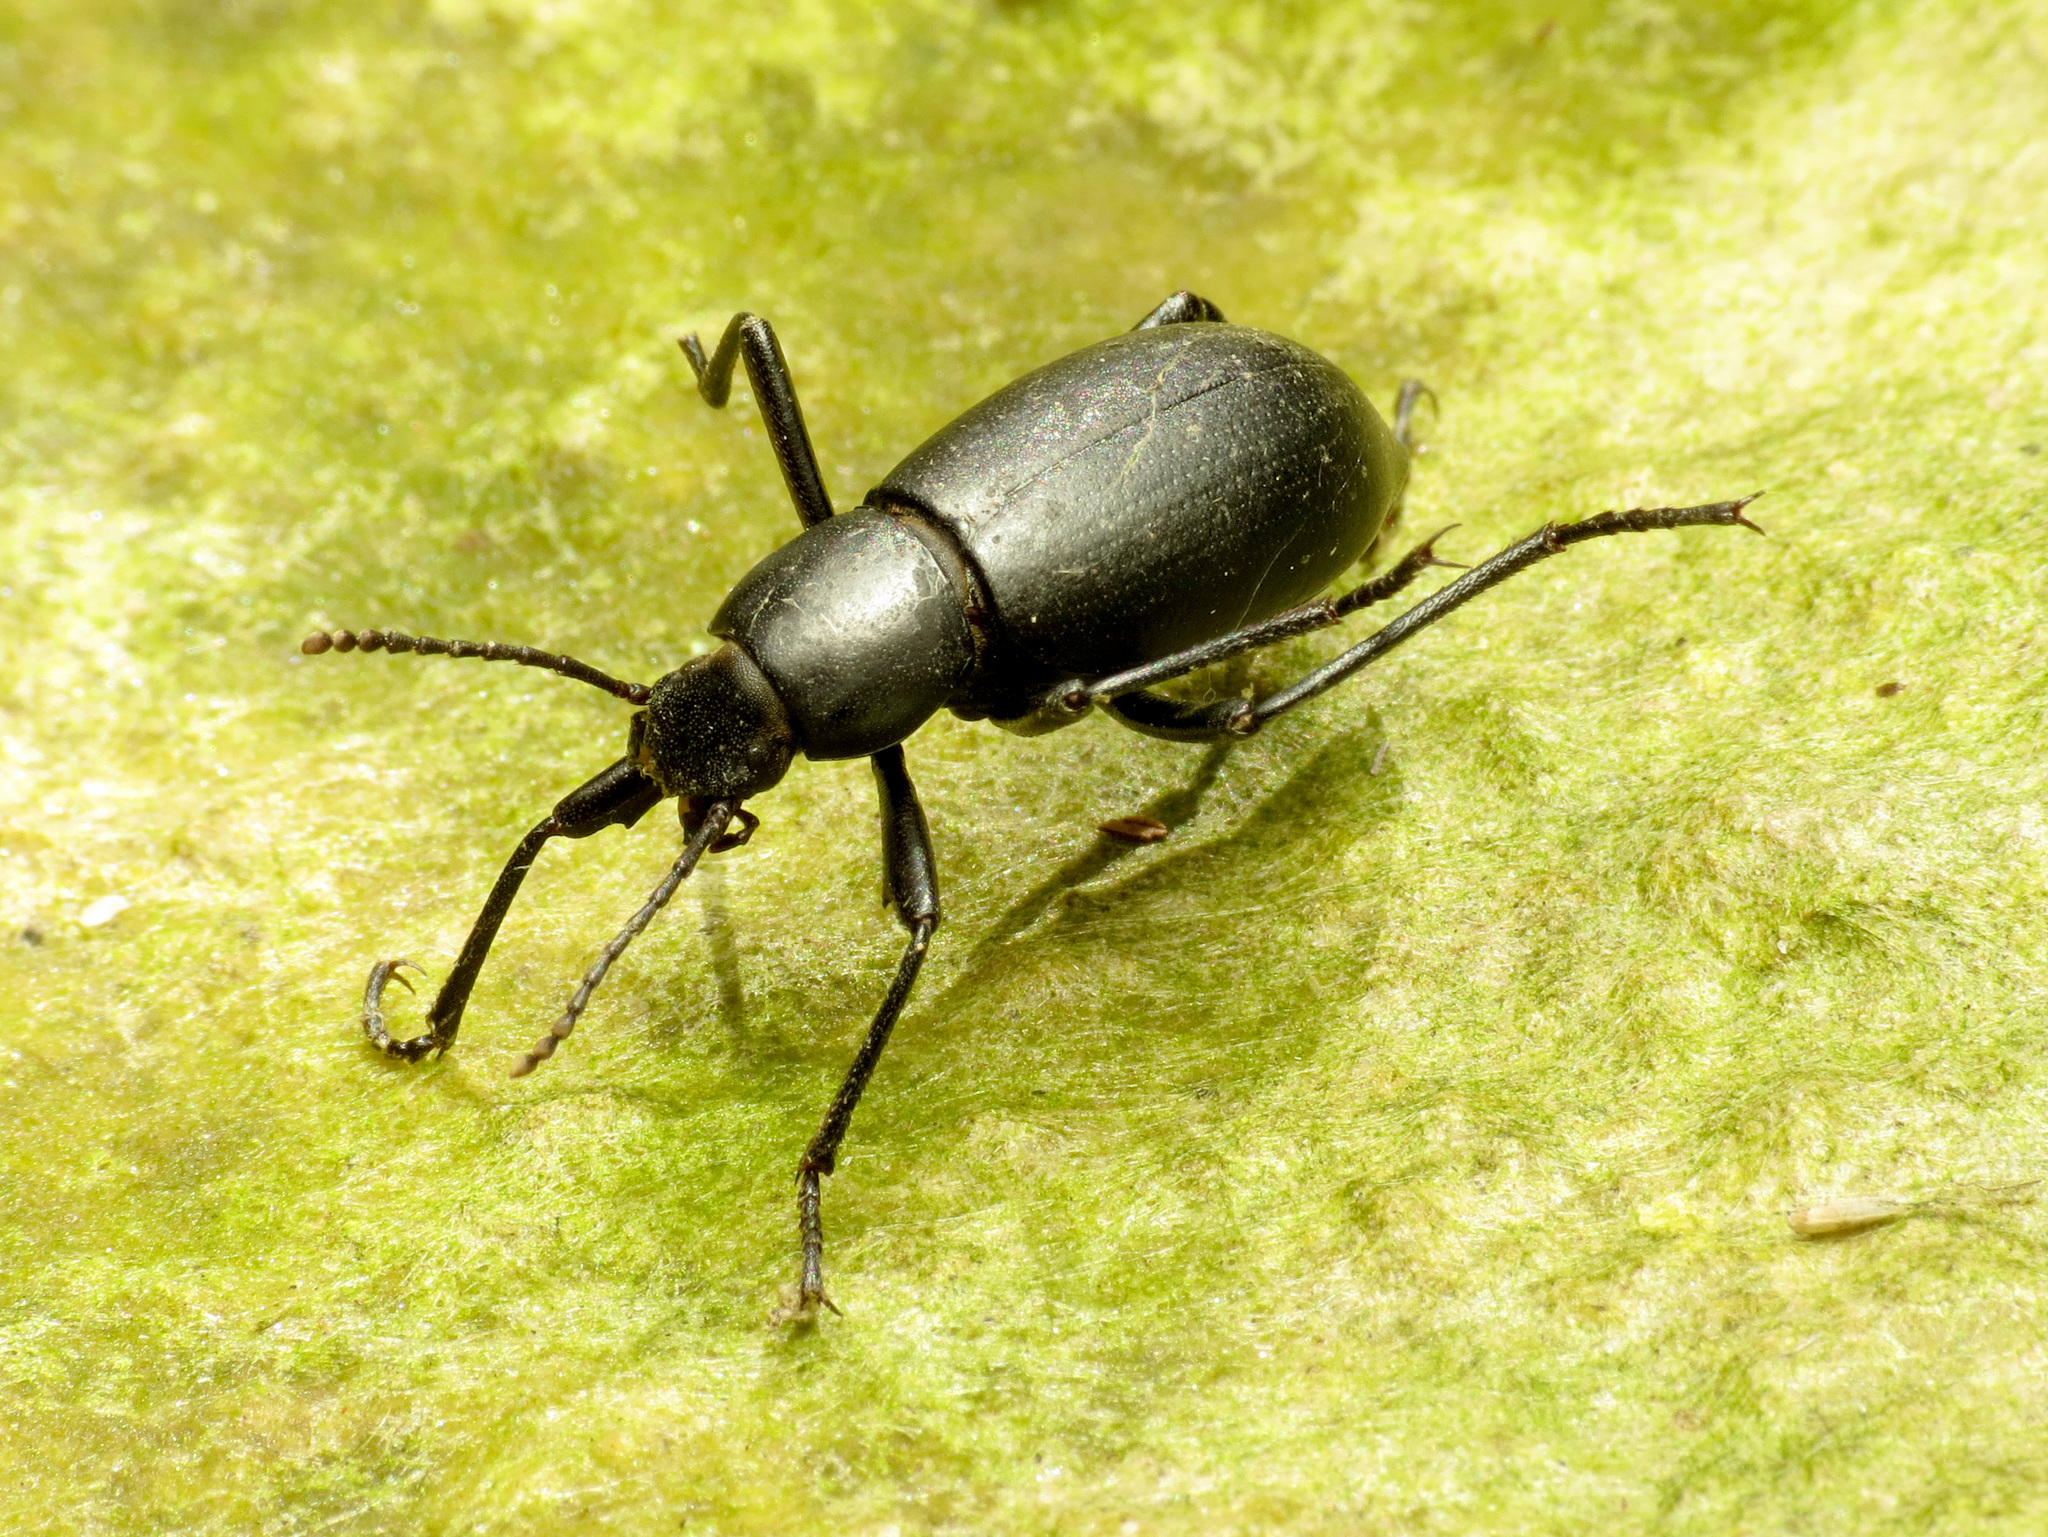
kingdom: Animalia
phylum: Arthropoda
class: Insecta
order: Coleoptera
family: Tenebrionidae
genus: Eleodes
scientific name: Eleodes delicata
